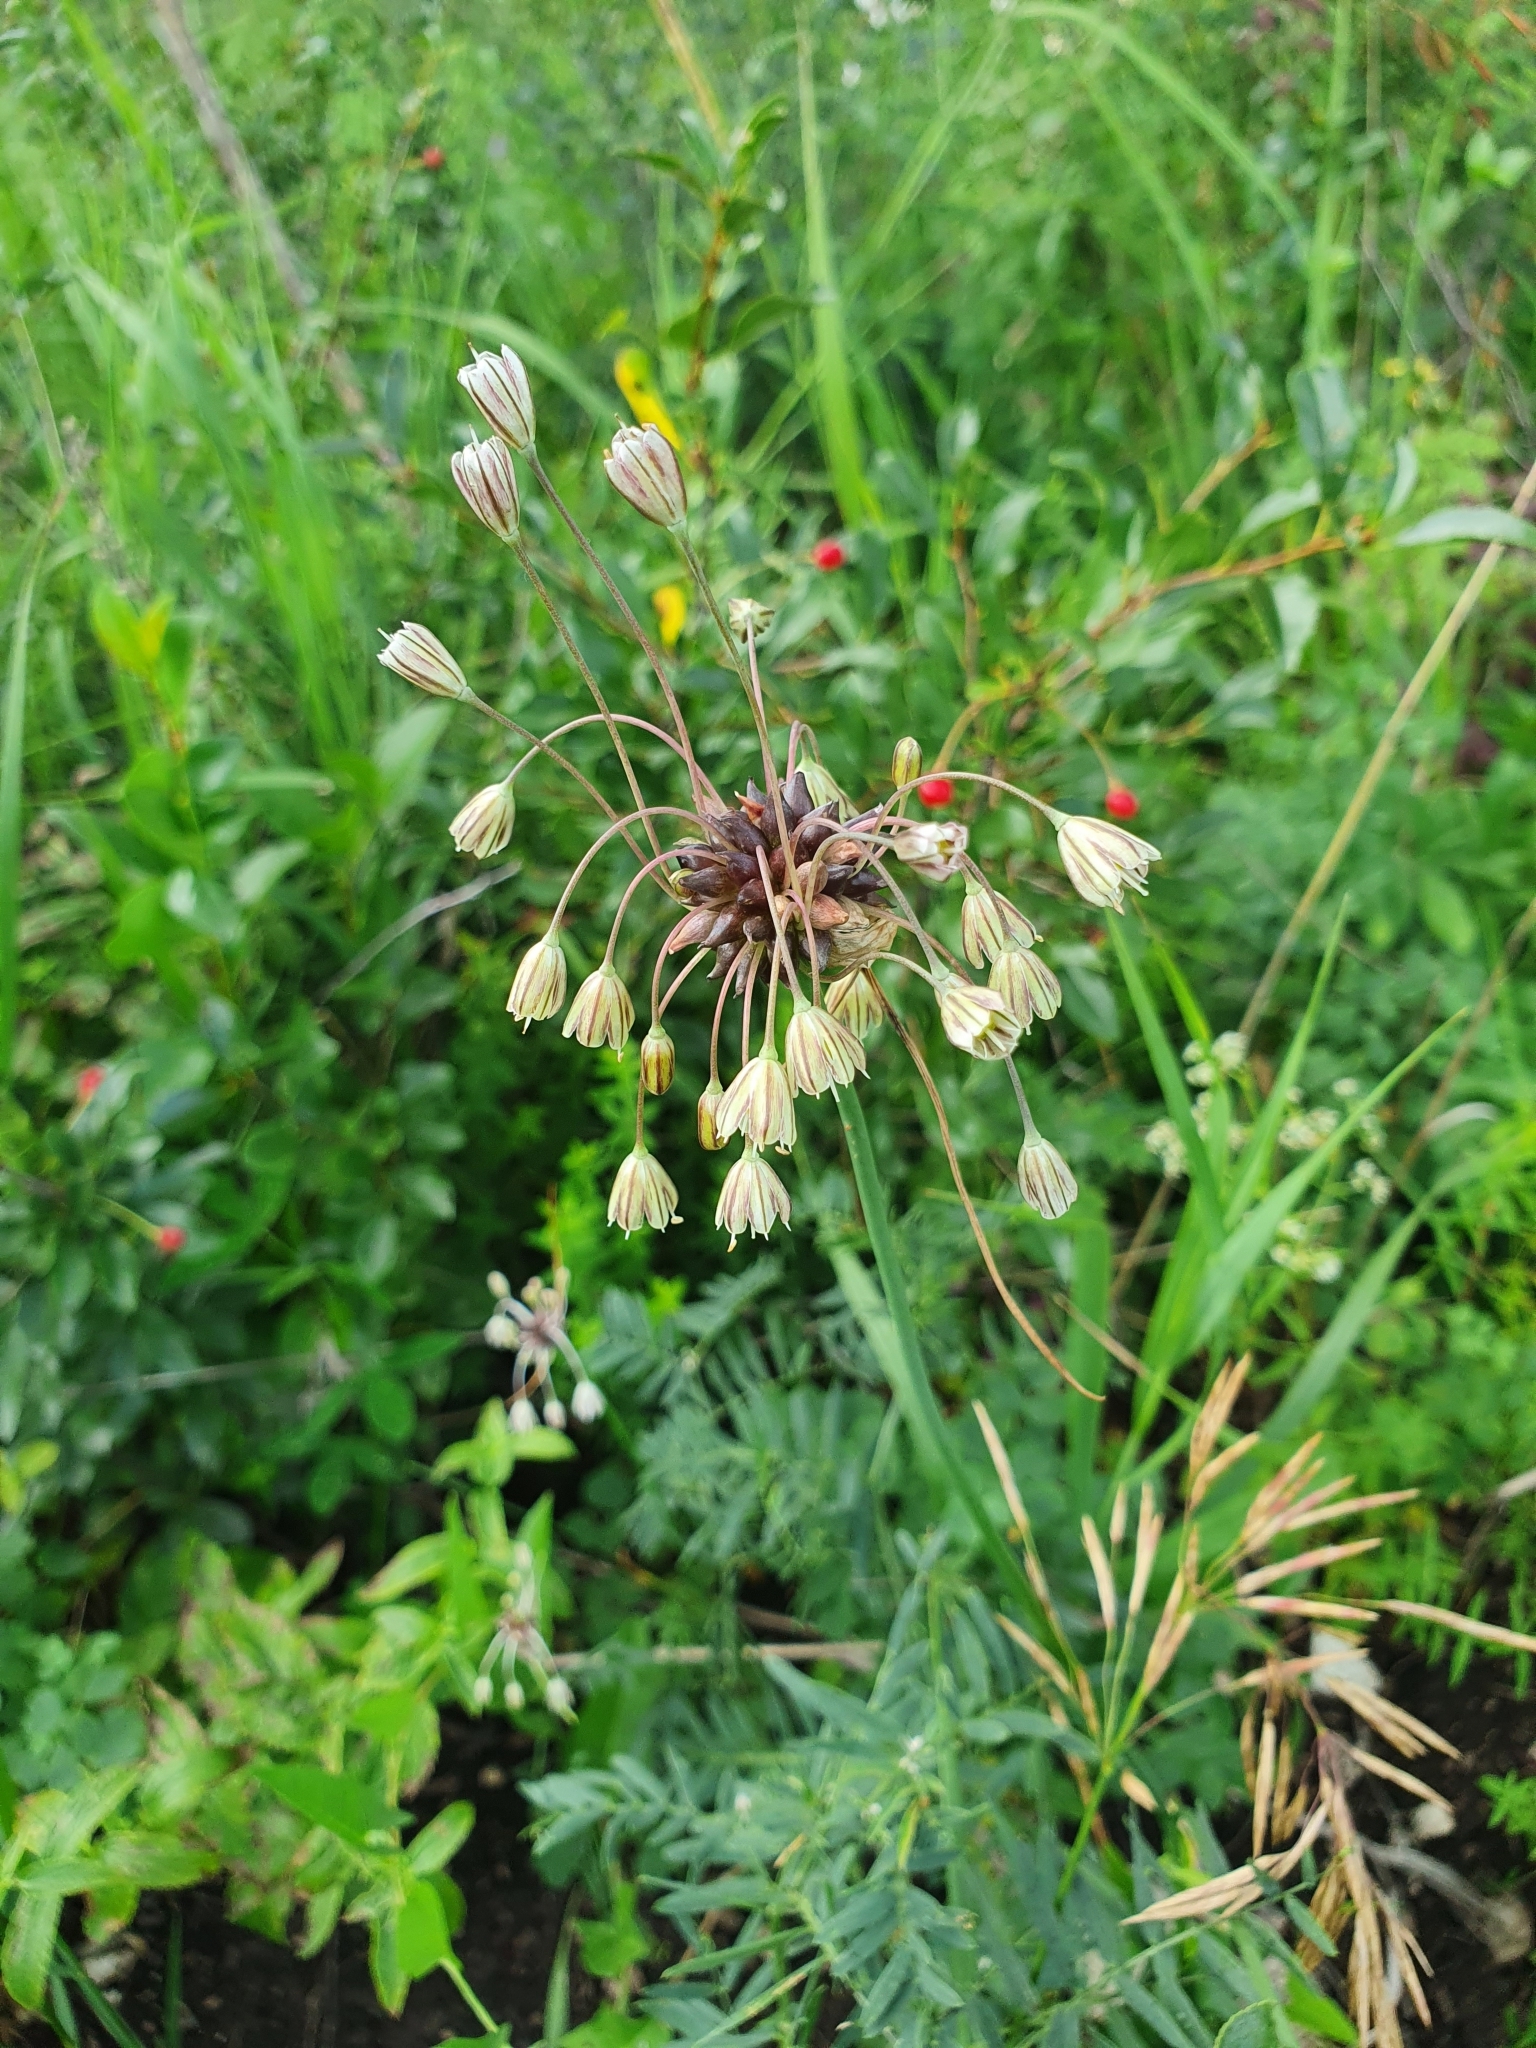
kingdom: Plantae
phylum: Tracheophyta
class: Liliopsida
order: Asparagales
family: Amaryllidaceae
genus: Allium
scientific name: Allium oleraceum
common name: Field garlic
